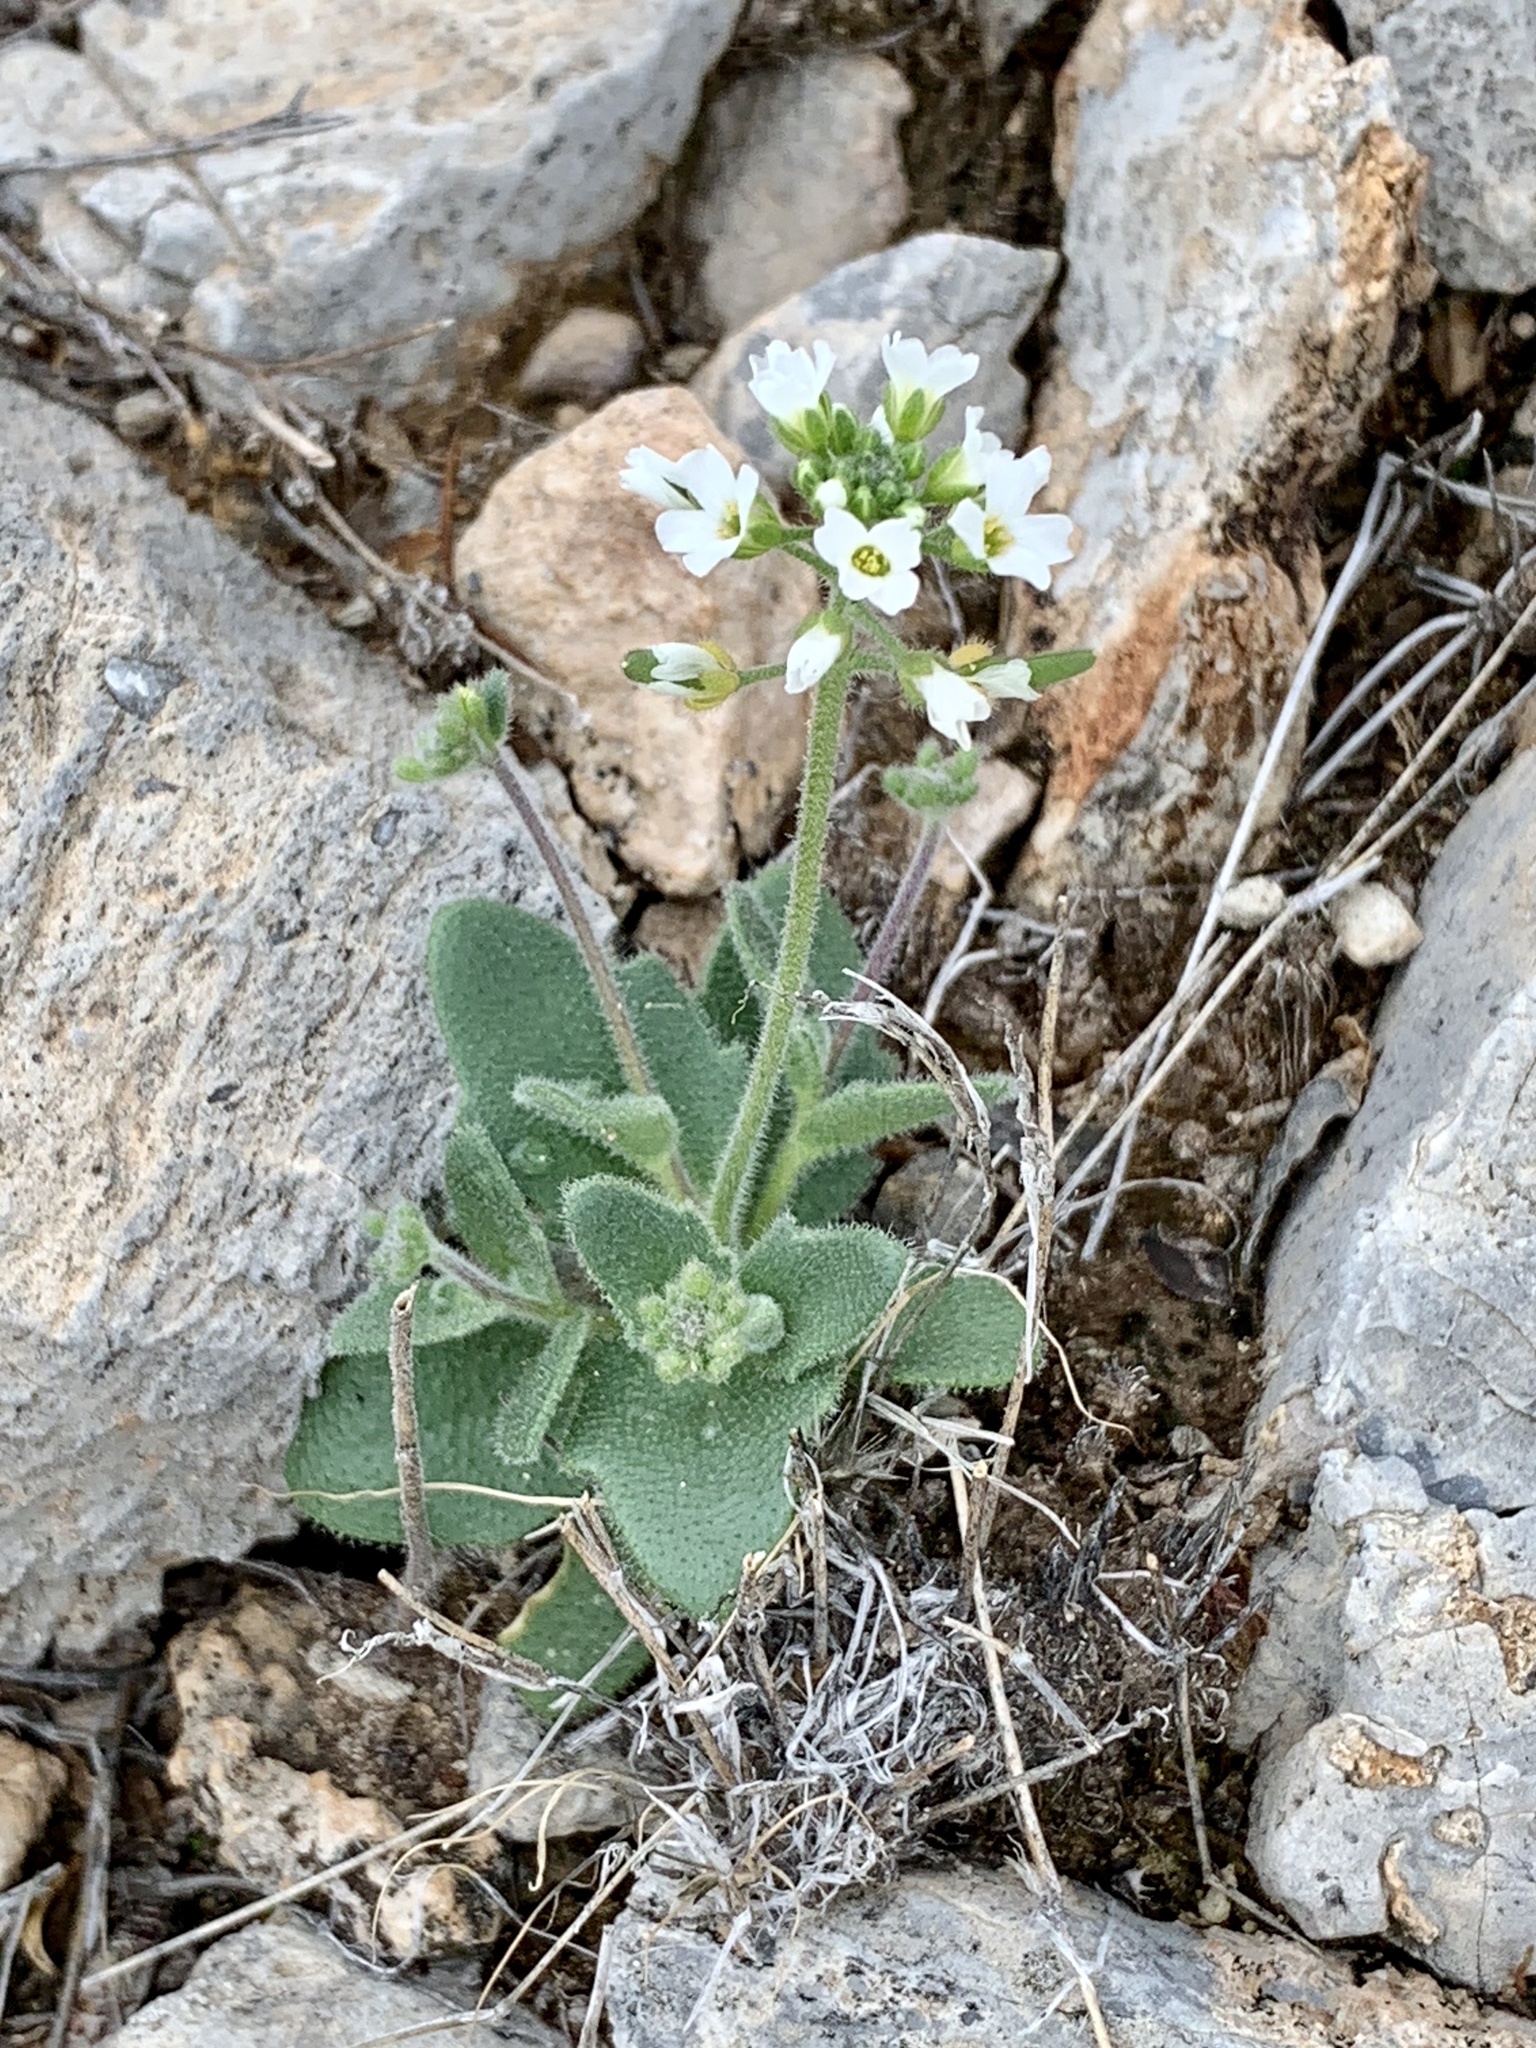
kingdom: Plantae
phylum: Tracheophyta
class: Magnoliopsida
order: Brassicales
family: Brassicaceae
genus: Tomostima
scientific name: Tomostima cuneifolia
